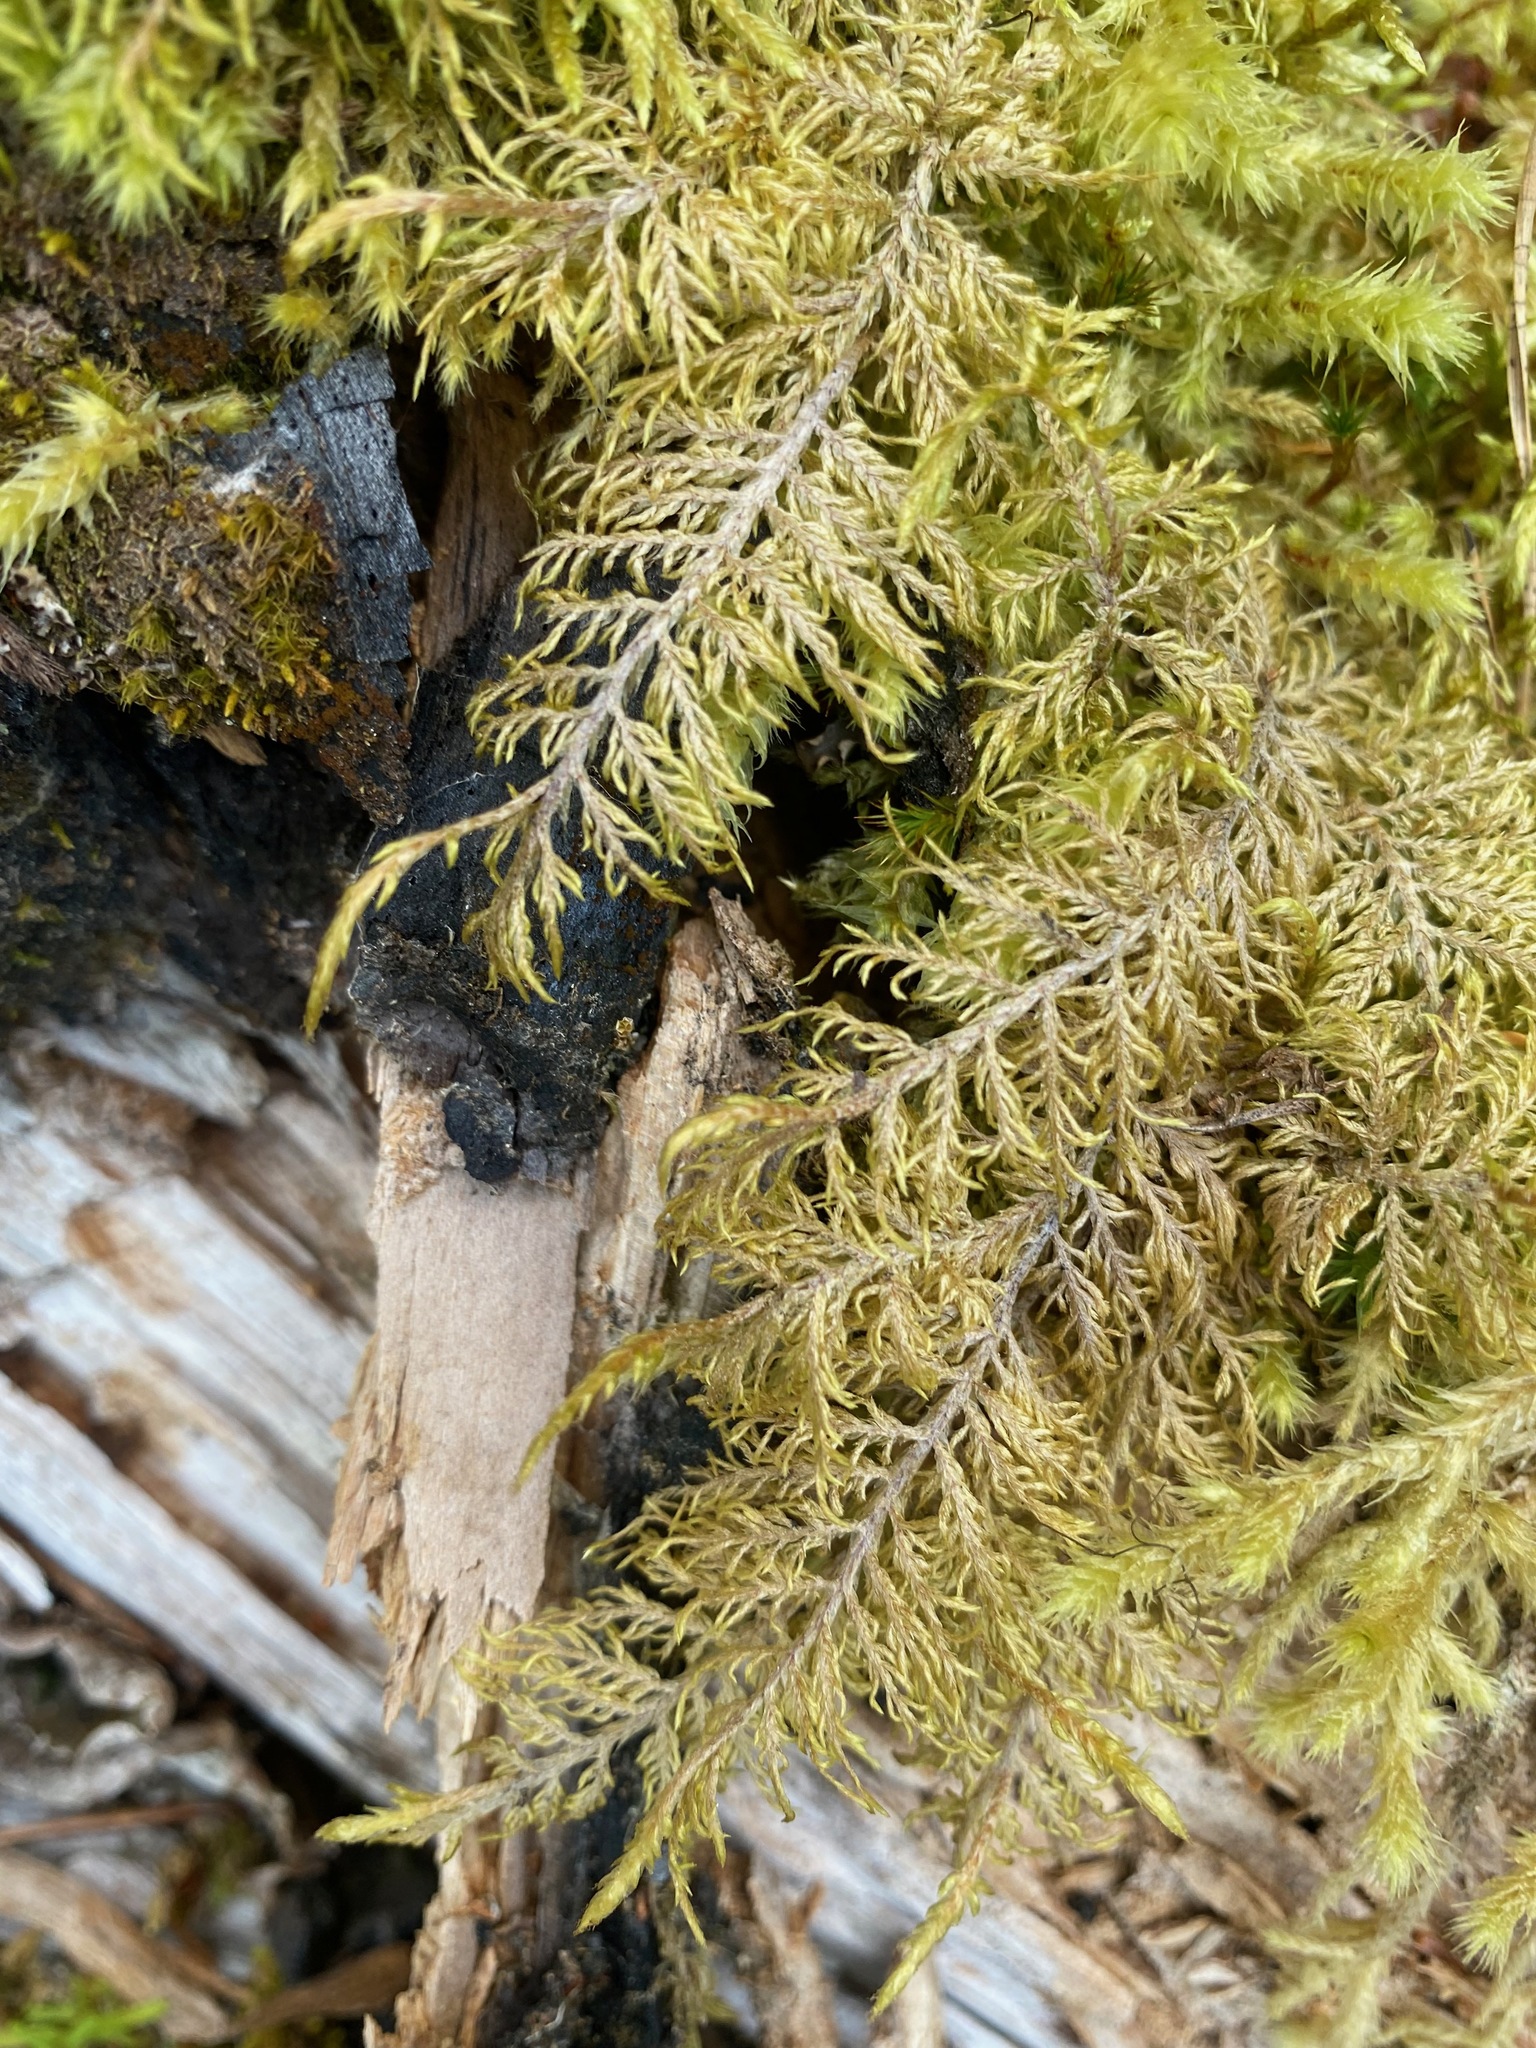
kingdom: Plantae
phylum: Bryophyta
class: Bryopsida
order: Hypnales
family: Hylocomiaceae
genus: Hylocomium
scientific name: Hylocomium splendens
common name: Stairstep moss
